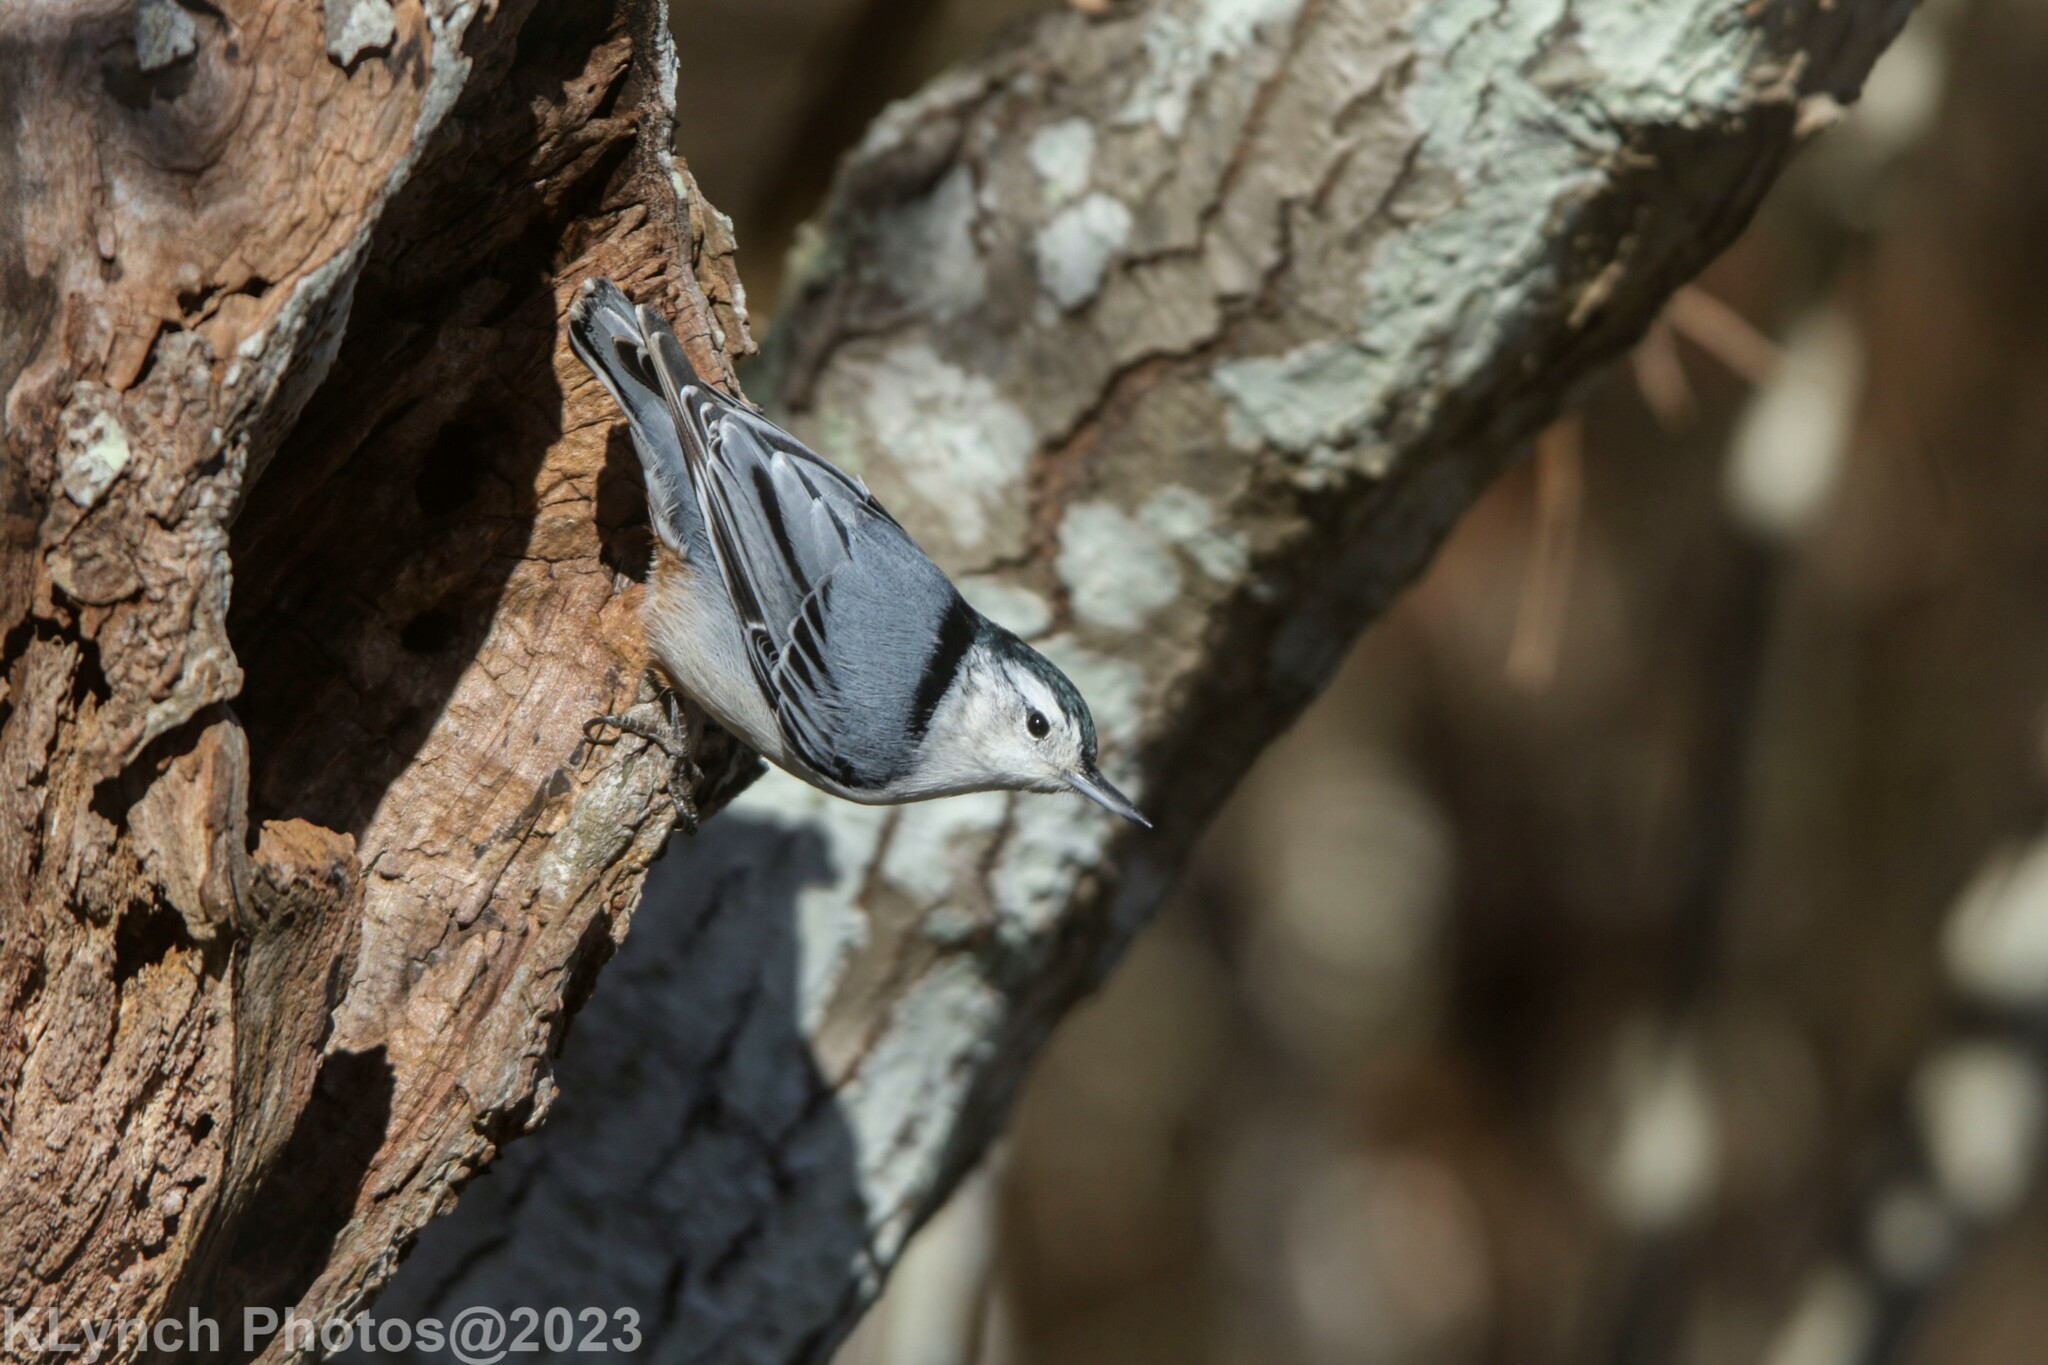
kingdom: Animalia
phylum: Chordata
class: Aves
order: Passeriformes
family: Sittidae
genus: Sitta
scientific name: Sitta carolinensis
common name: White-breasted nuthatch
